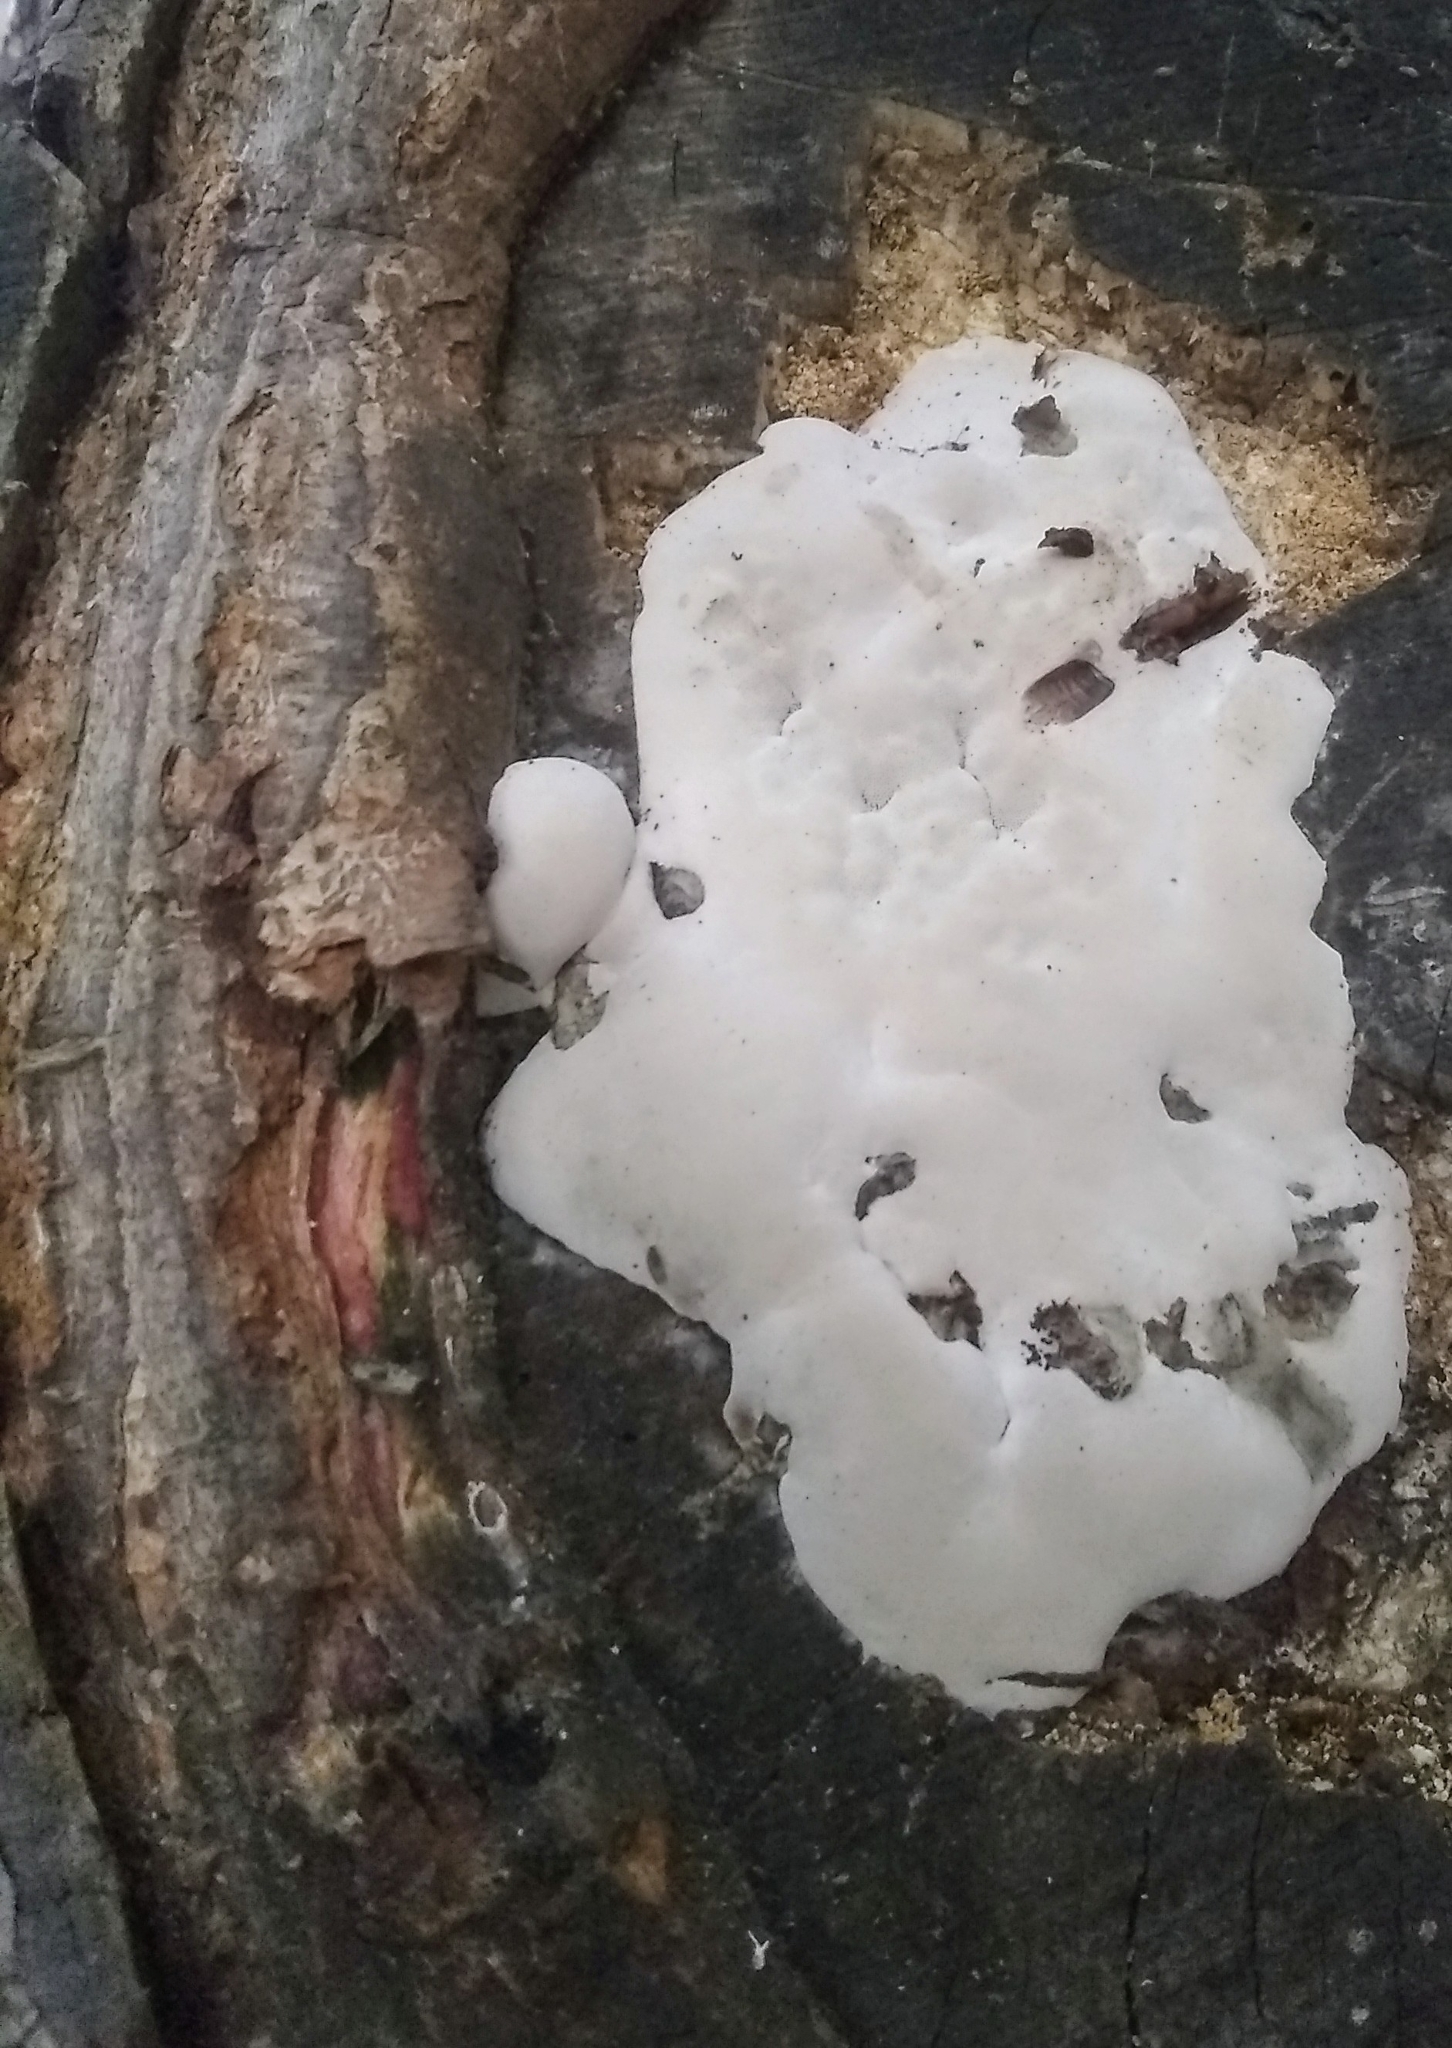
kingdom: Fungi
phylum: Basidiomycota
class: Agaricomycetes
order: Polyporales
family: Polyporaceae
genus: Ganoderma
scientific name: Ganoderma brownii
